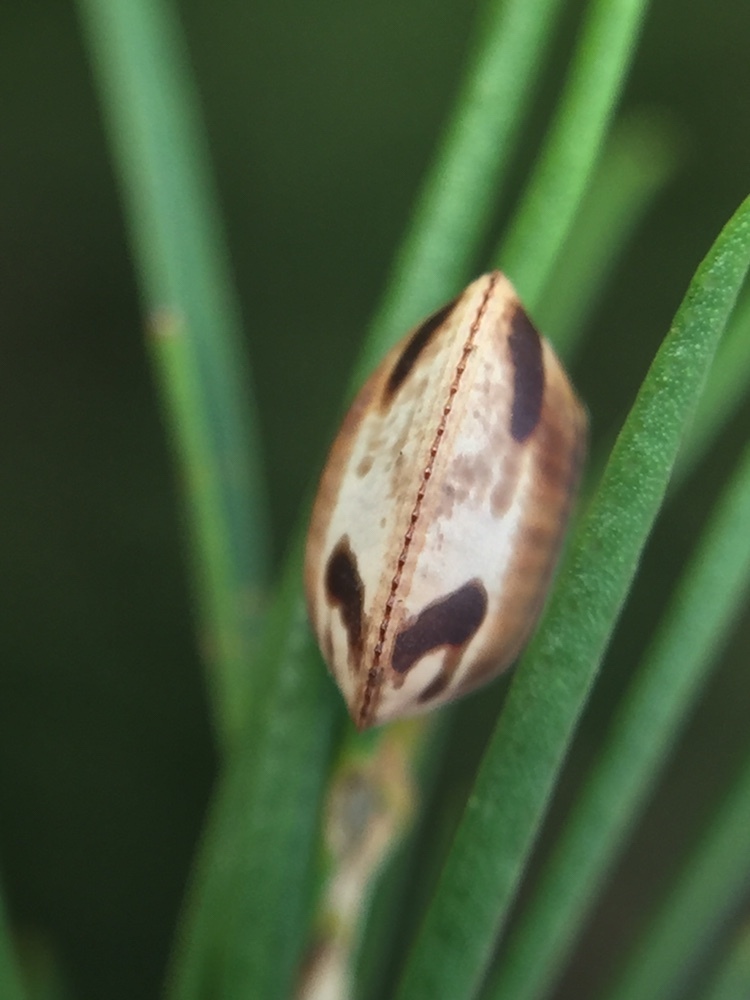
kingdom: Animalia
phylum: Arthropoda
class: Insecta
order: Blattodea
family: Ectobiidae
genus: Balta
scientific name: Balta bicolor
